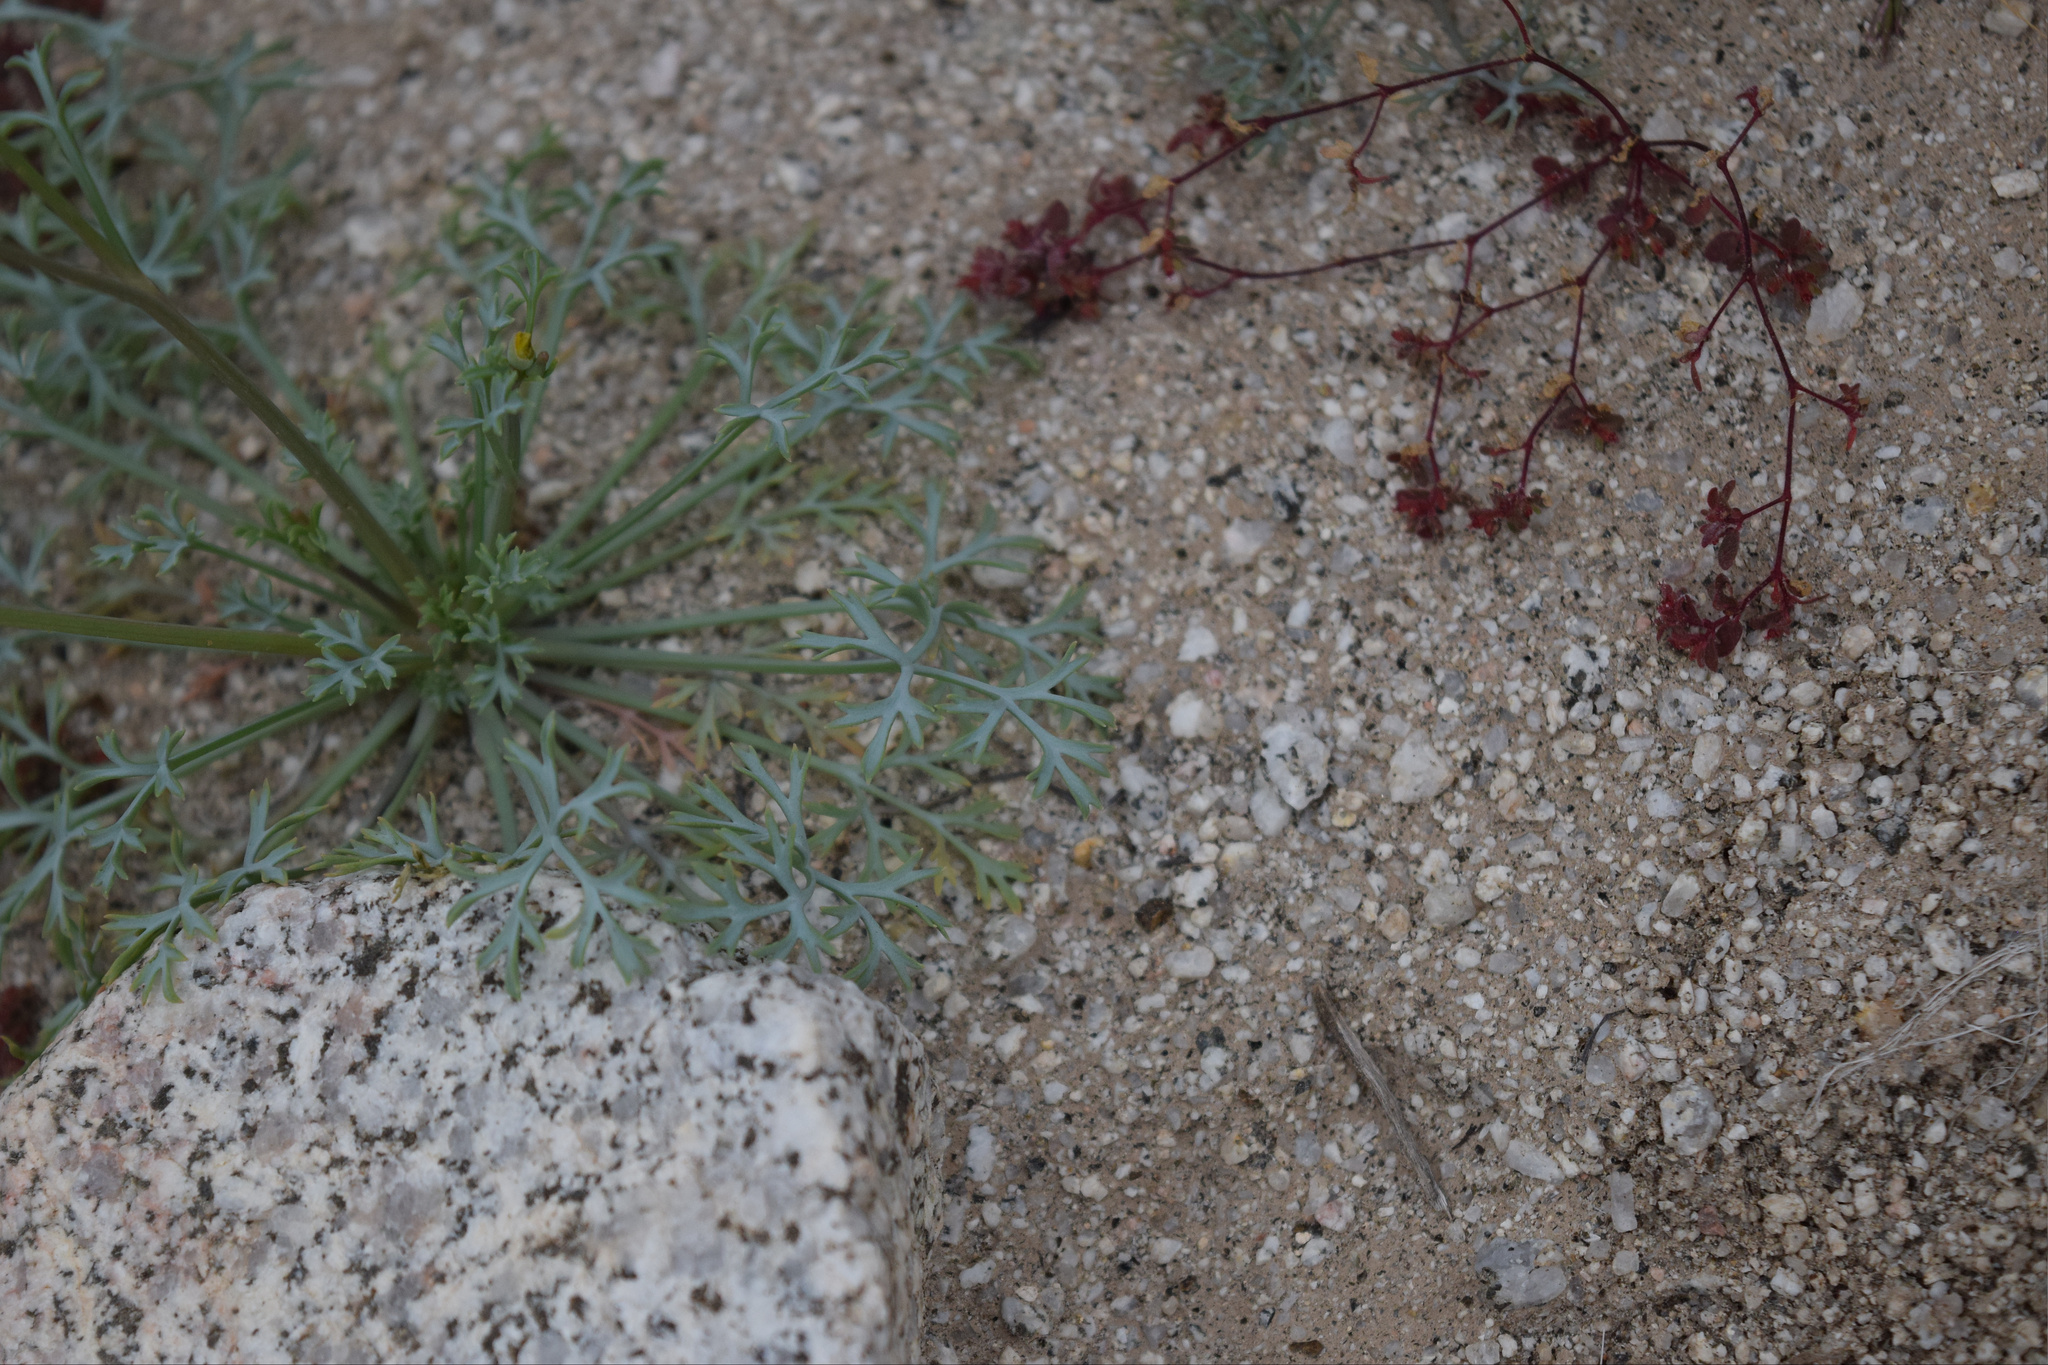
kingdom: Plantae
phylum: Tracheophyta
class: Magnoliopsida
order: Ranunculales
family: Papaveraceae
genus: Eschscholzia
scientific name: Eschscholzia parishii
